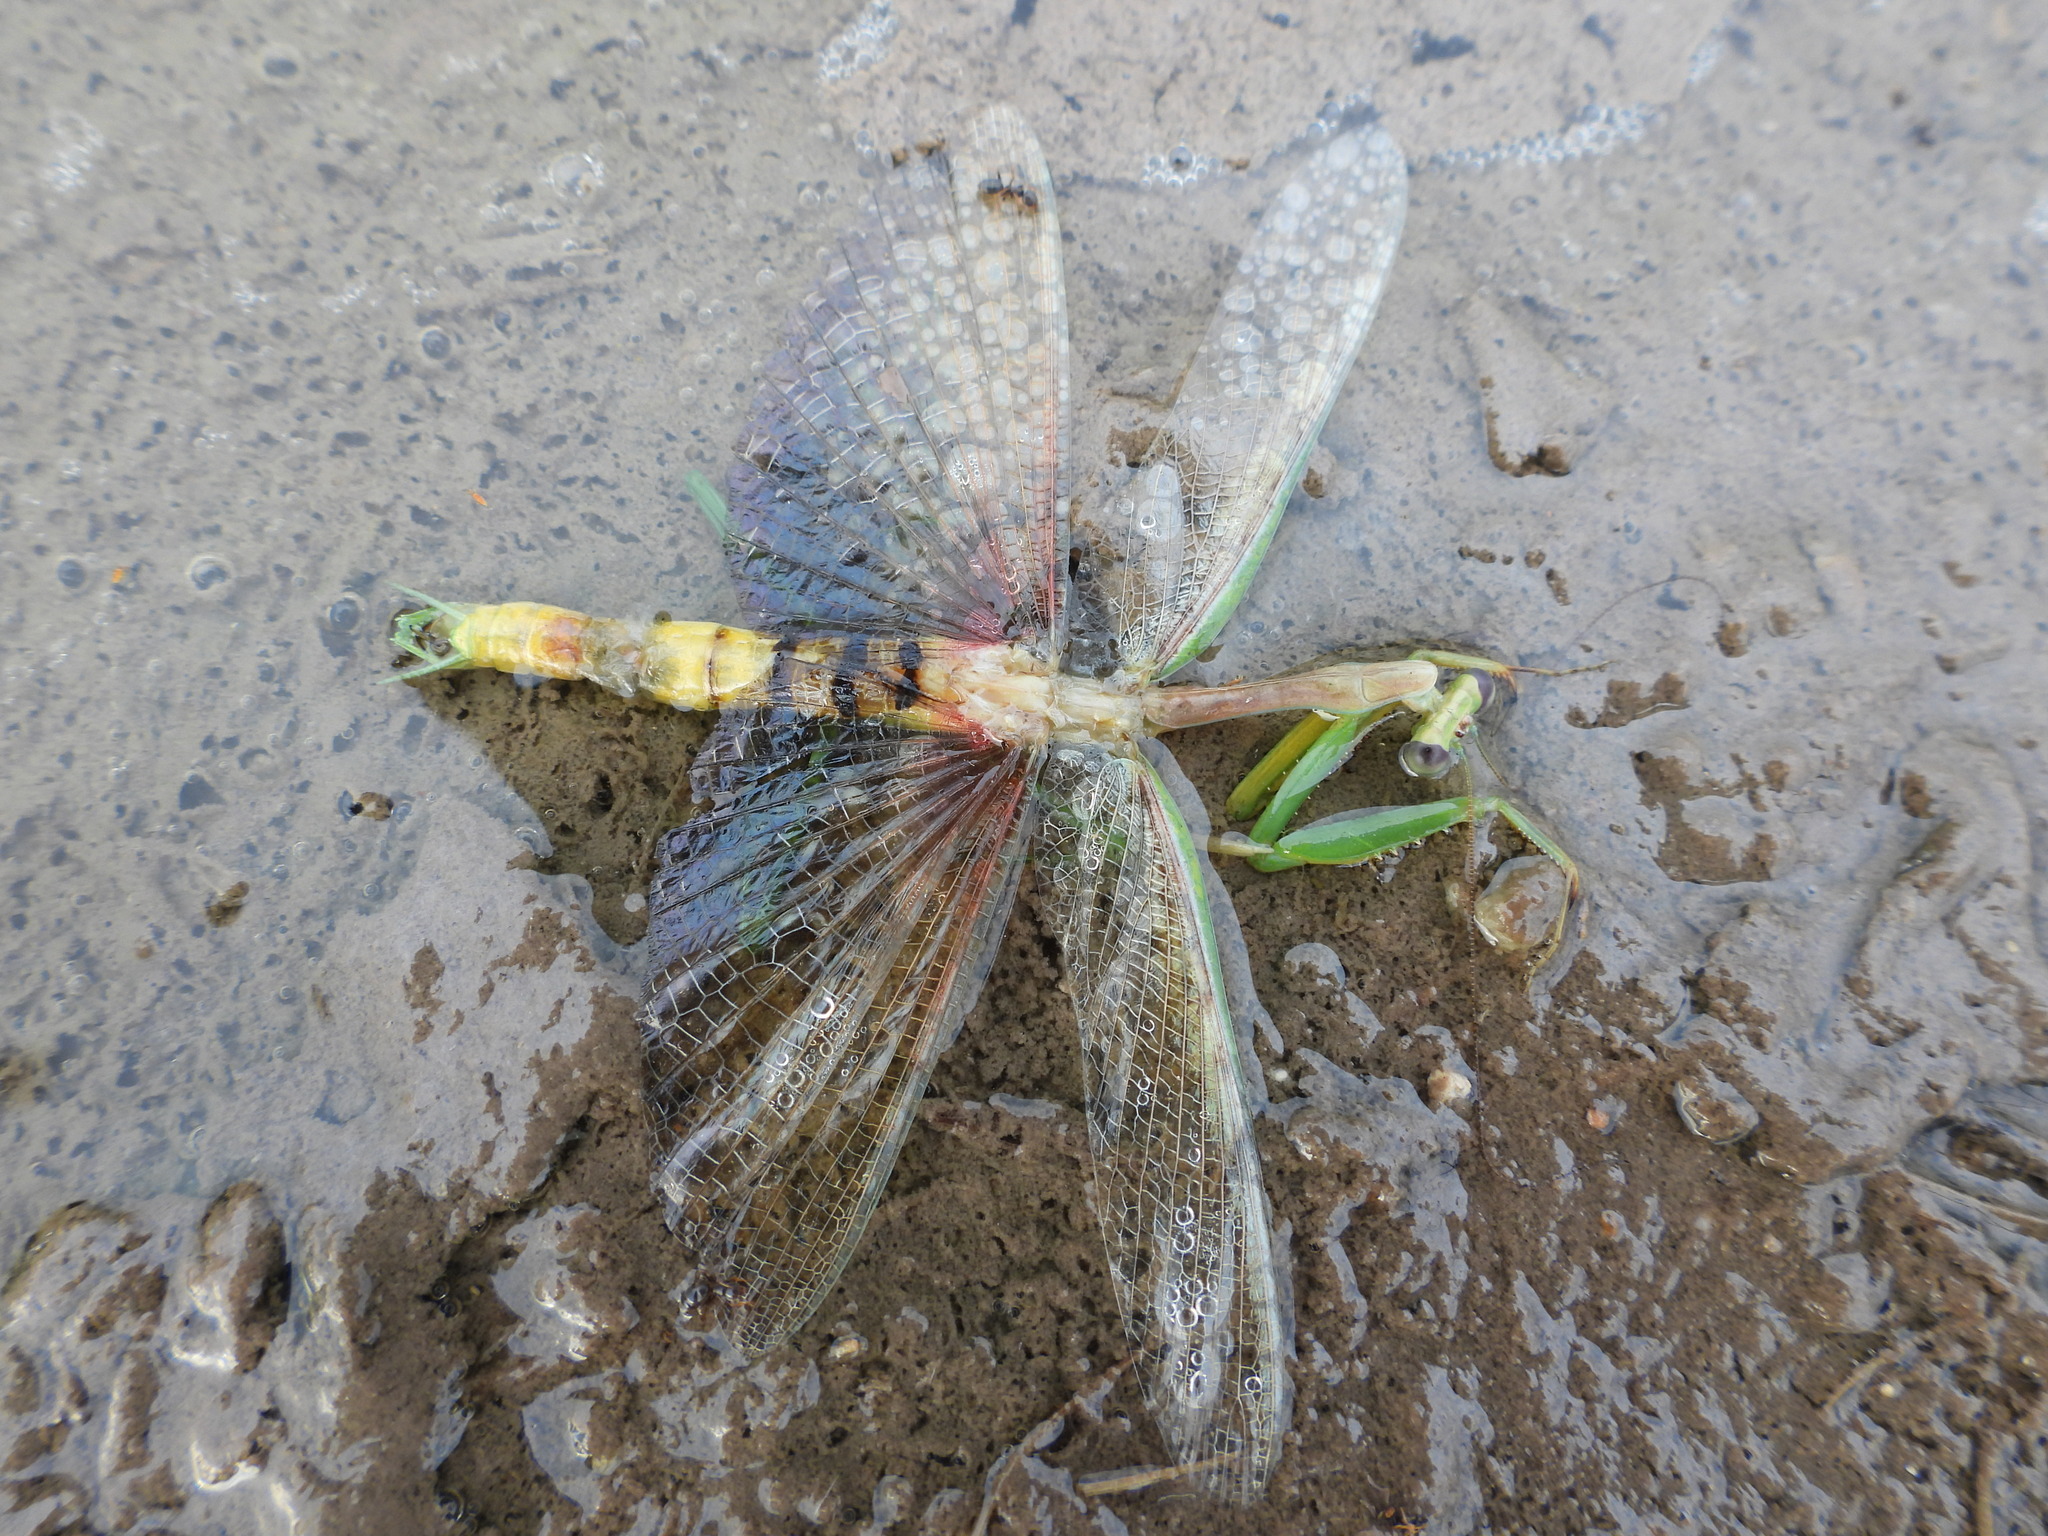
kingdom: Animalia
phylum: Arthropoda
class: Insecta
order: Mantodea
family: Mantidae
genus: Stagmomantis
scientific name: Stagmomantis californica
